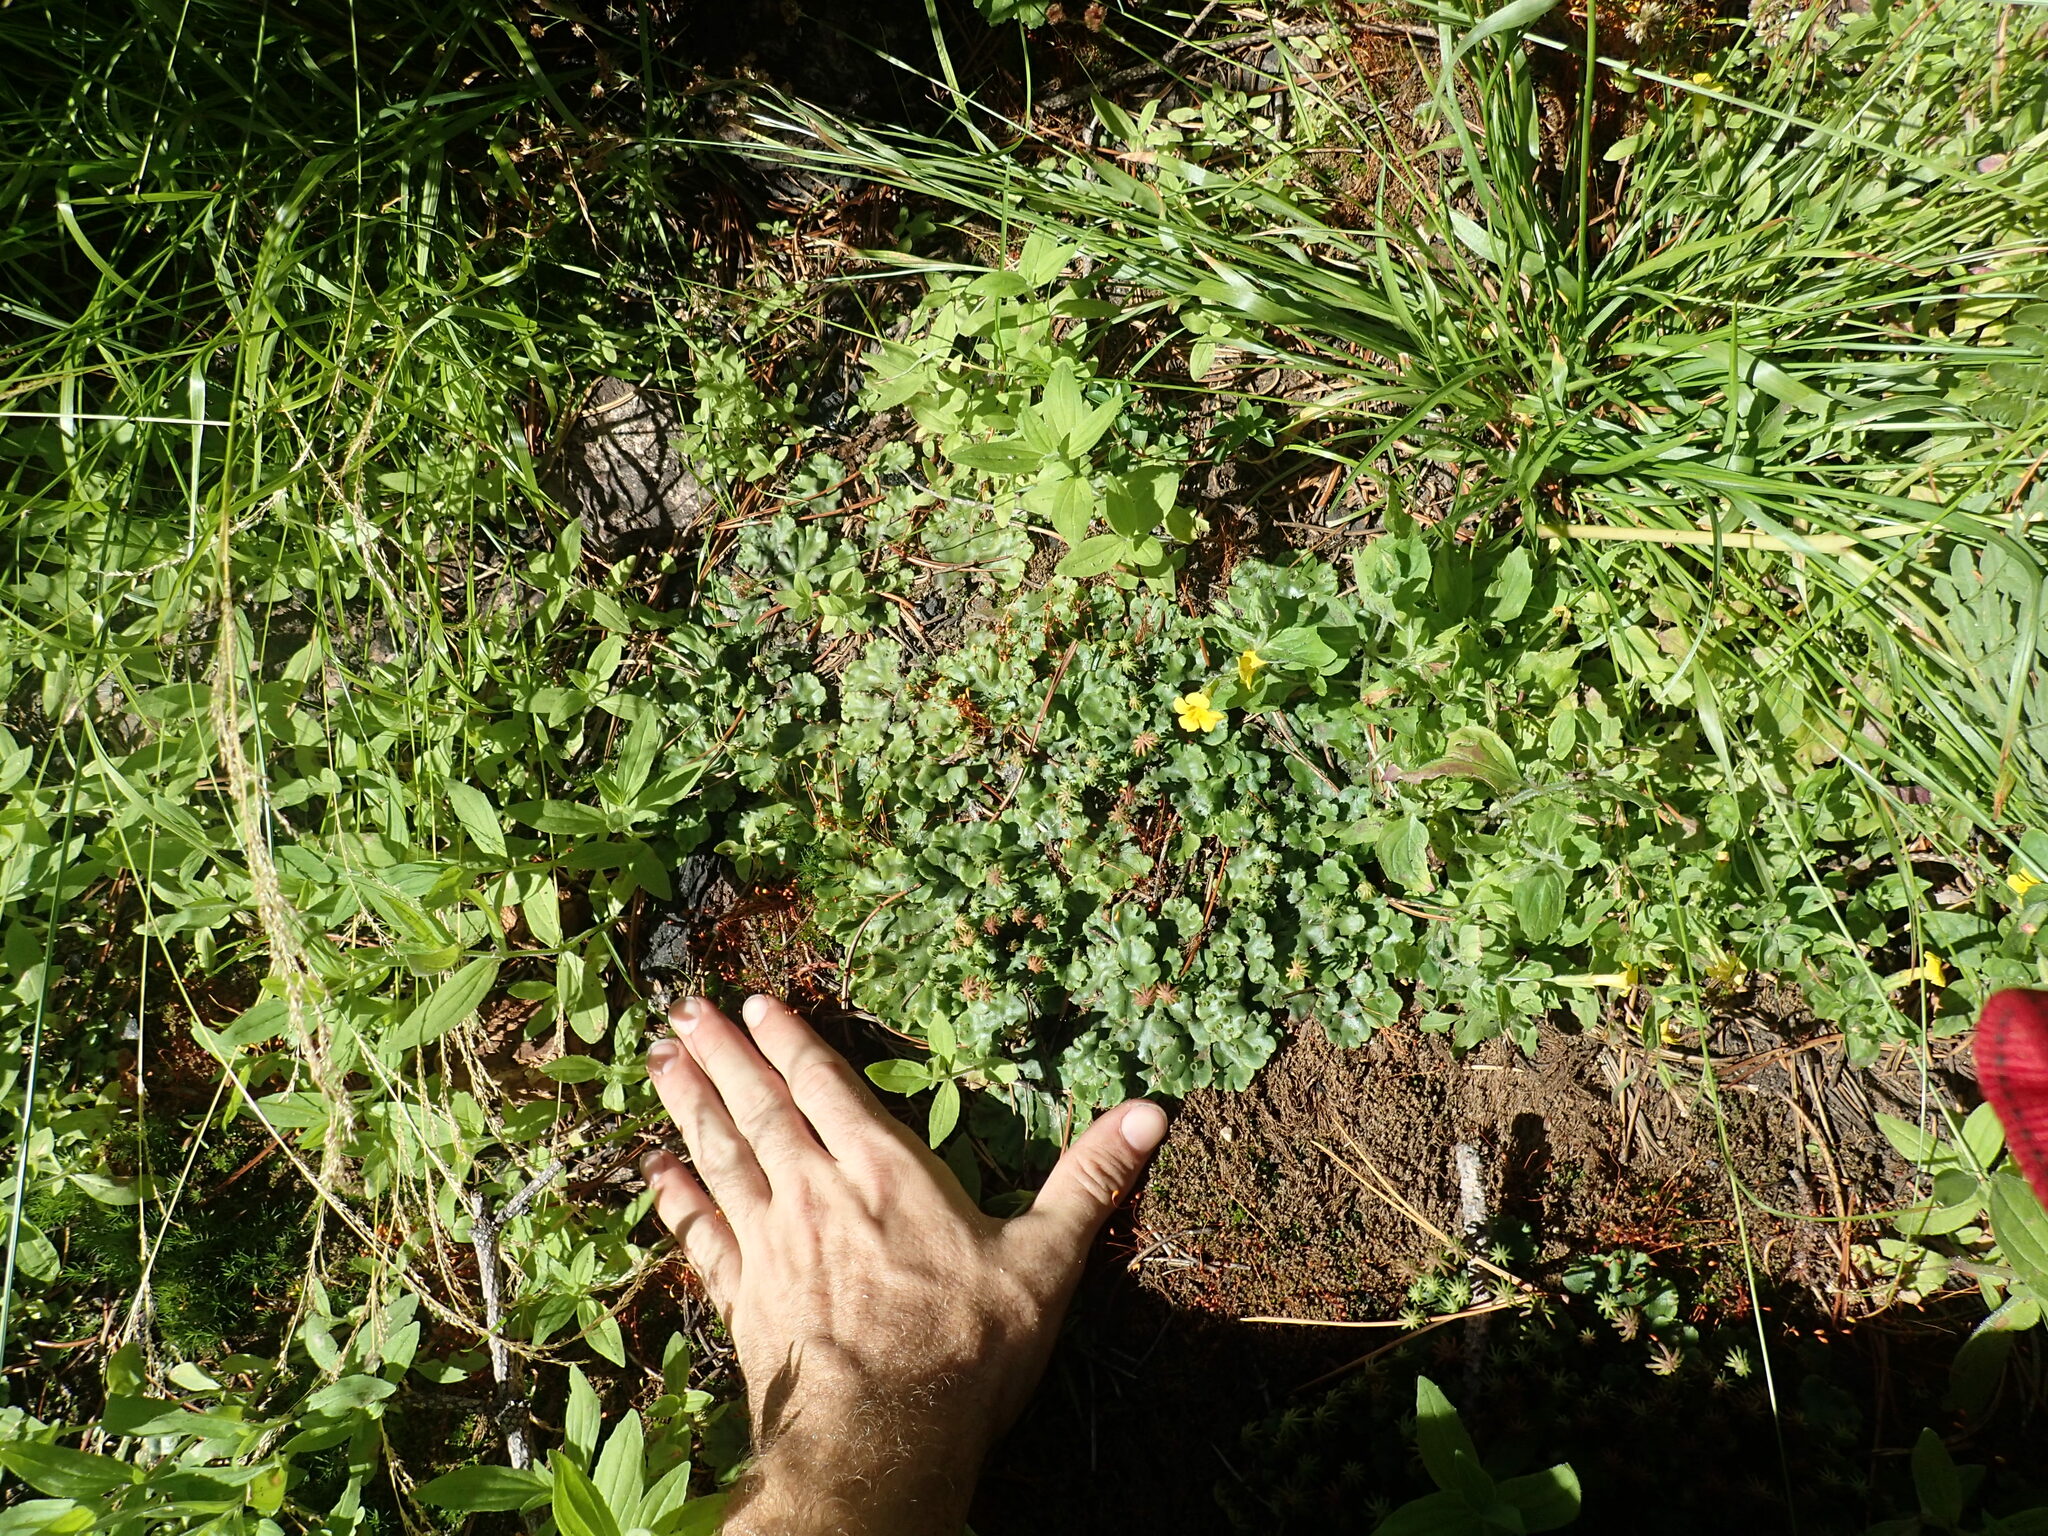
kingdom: Plantae
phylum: Marchantiophyta
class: Marchantiopsida
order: Marchantiales
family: Marchantiaceae
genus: Marchantia
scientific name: Marchantia polymorpha
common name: Common liverwort
